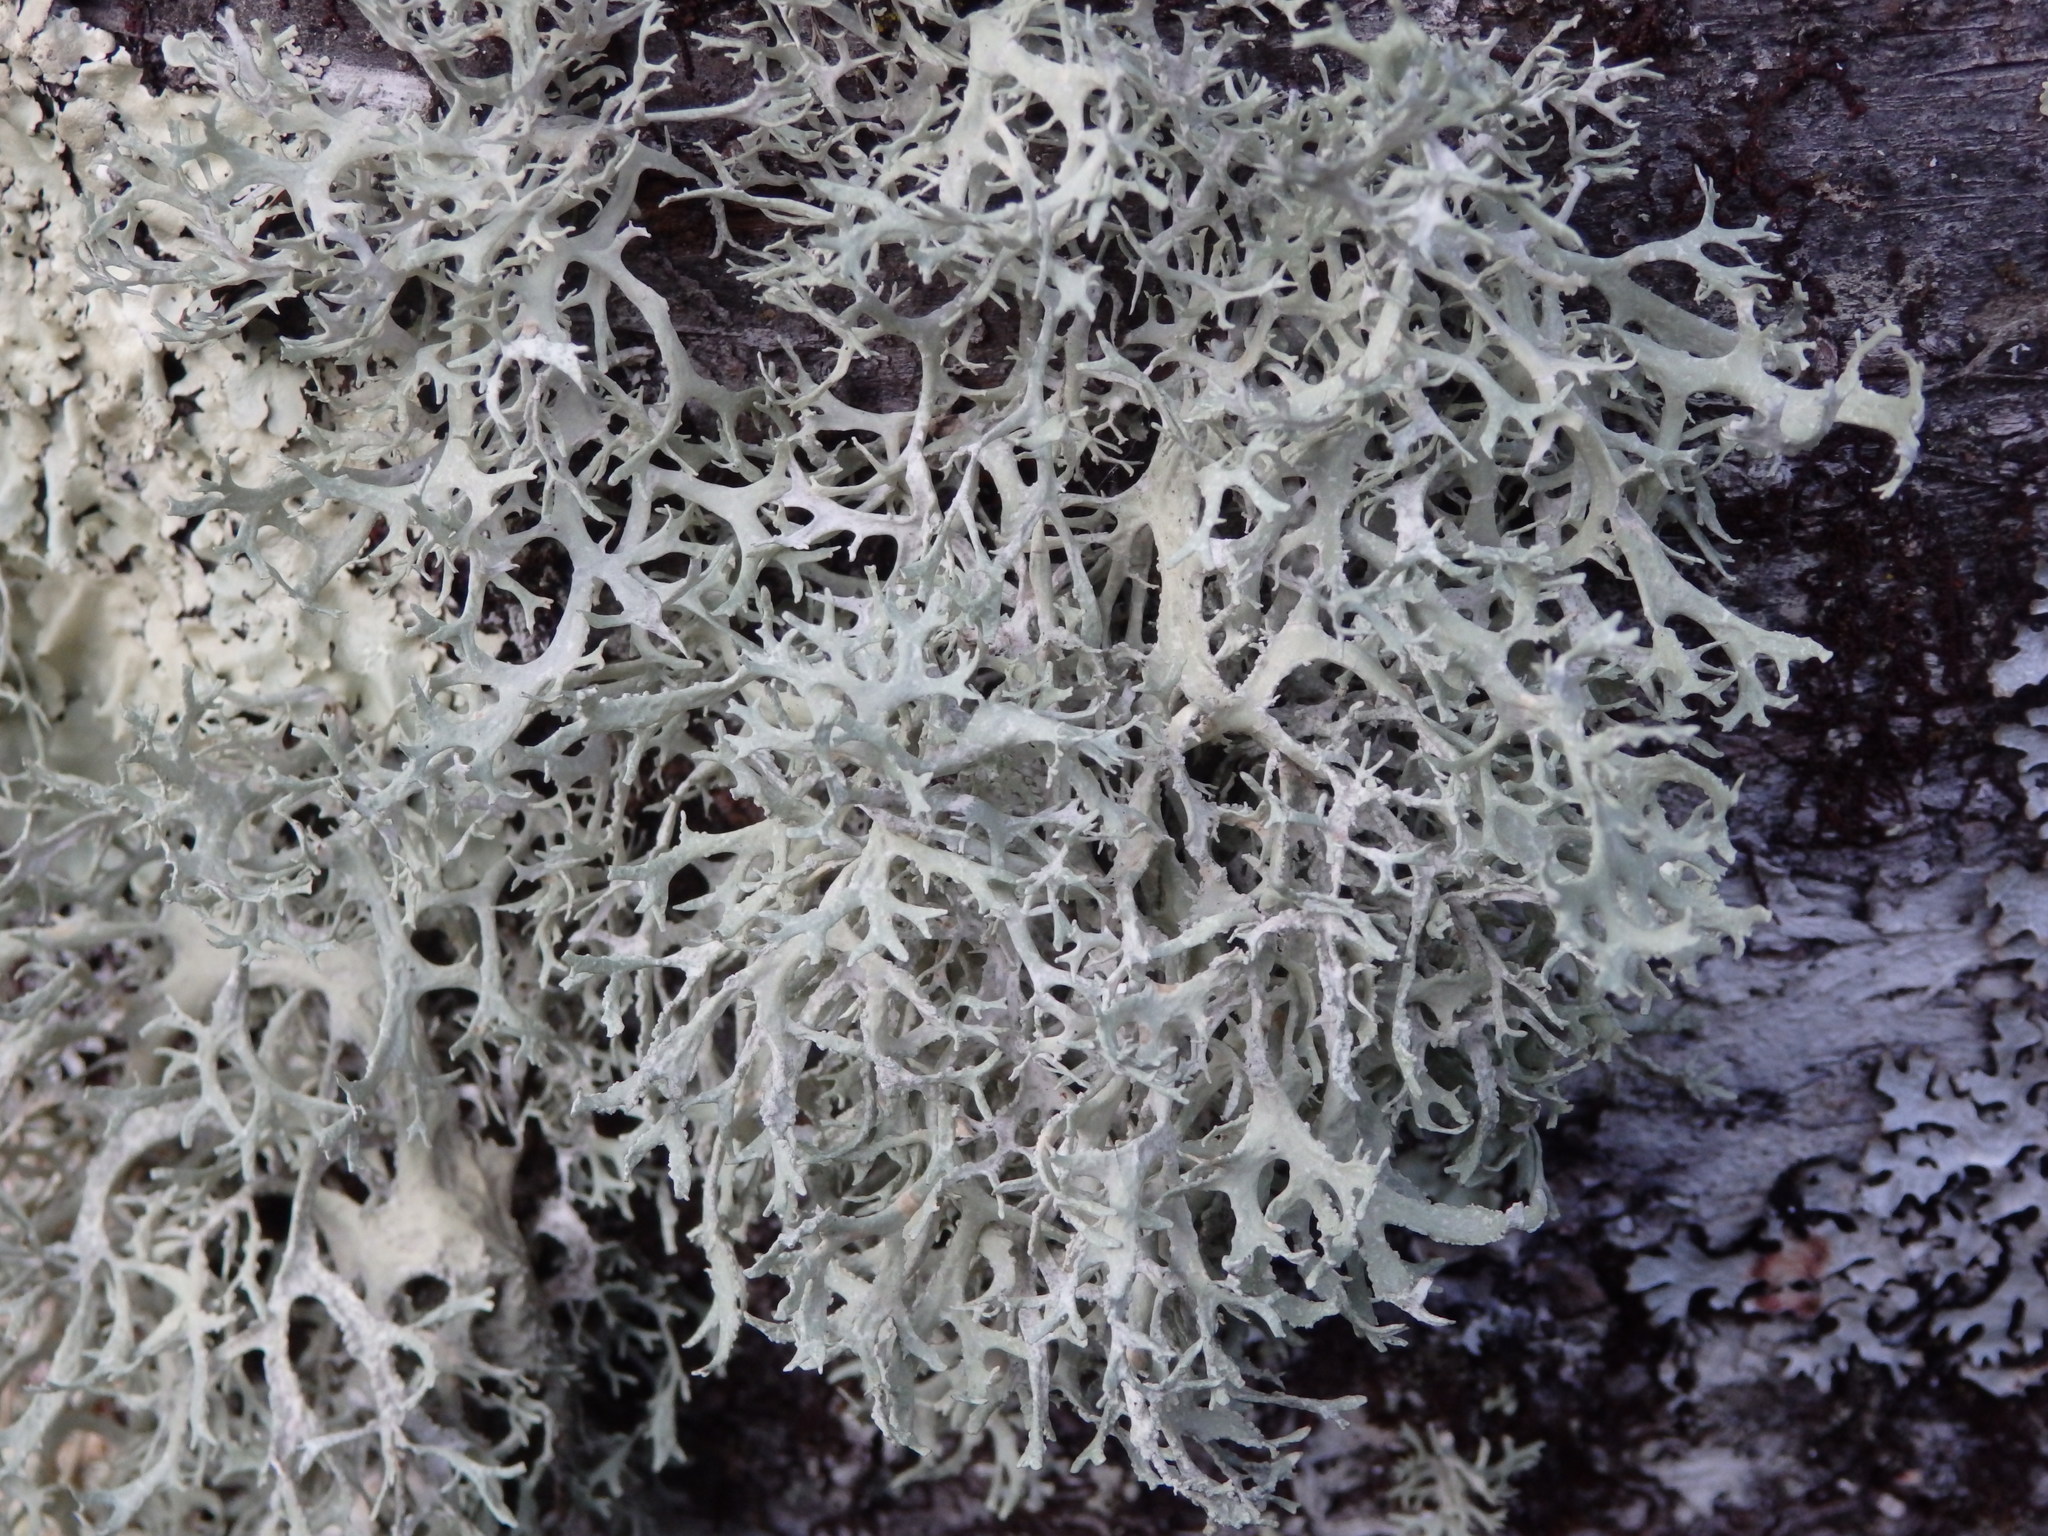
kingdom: Fungi
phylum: Ascomycota
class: Lecanoromycetes
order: Lecanorales
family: Parmeliaceae
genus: Evernia
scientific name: Evernia prunastri
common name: Oak moss
